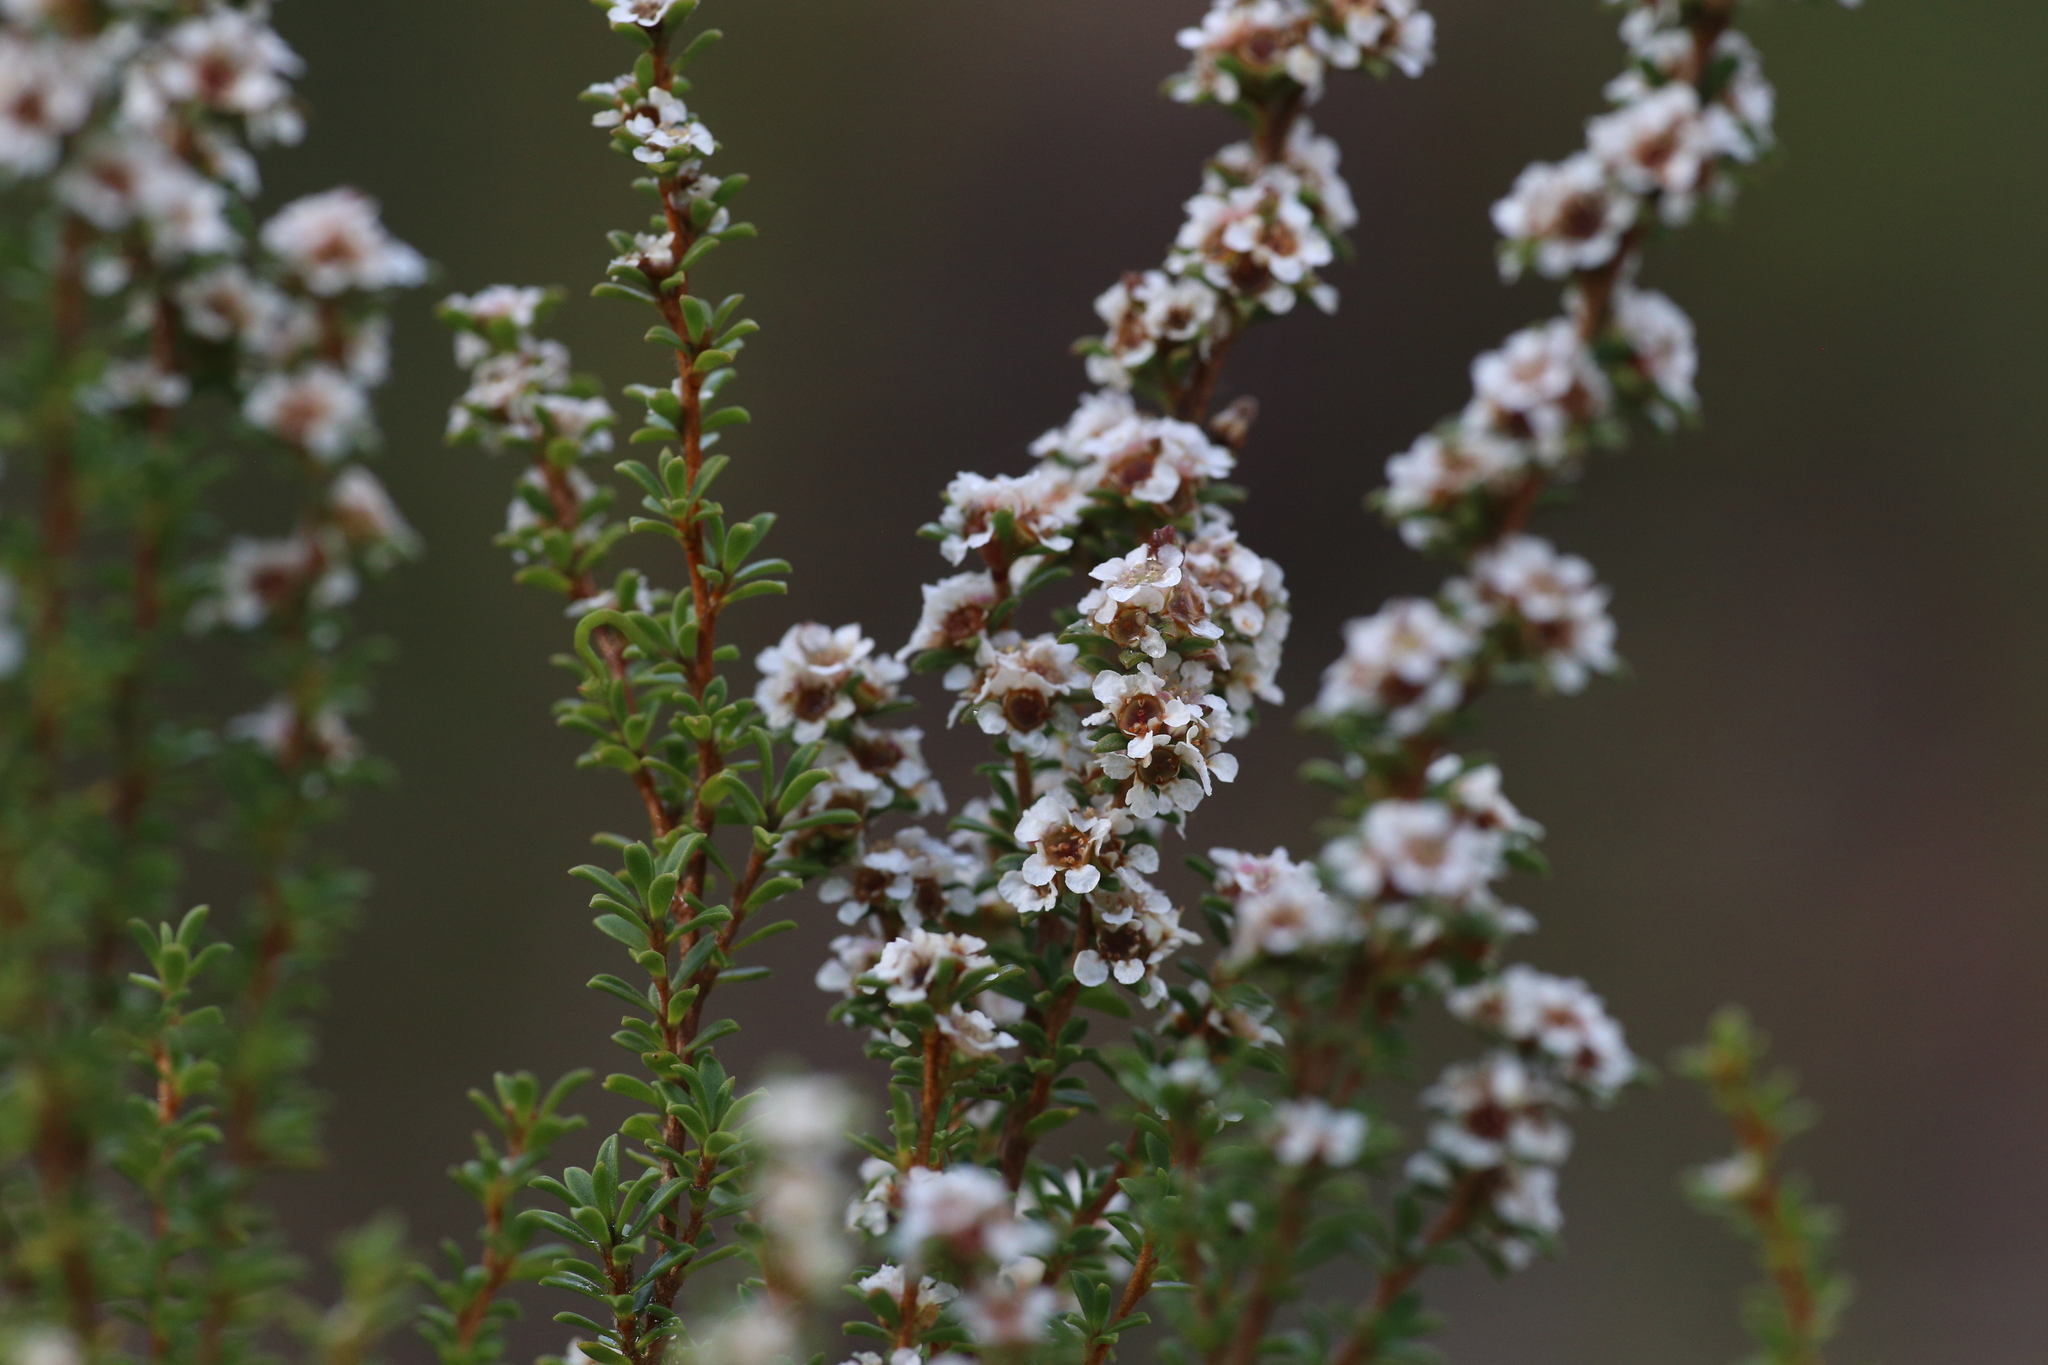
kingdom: Plantae
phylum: Tracheophyta
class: Magnoliopsida
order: Myrtales
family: Myrtaceae
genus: Taxandria
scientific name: Taxandria parviceps
